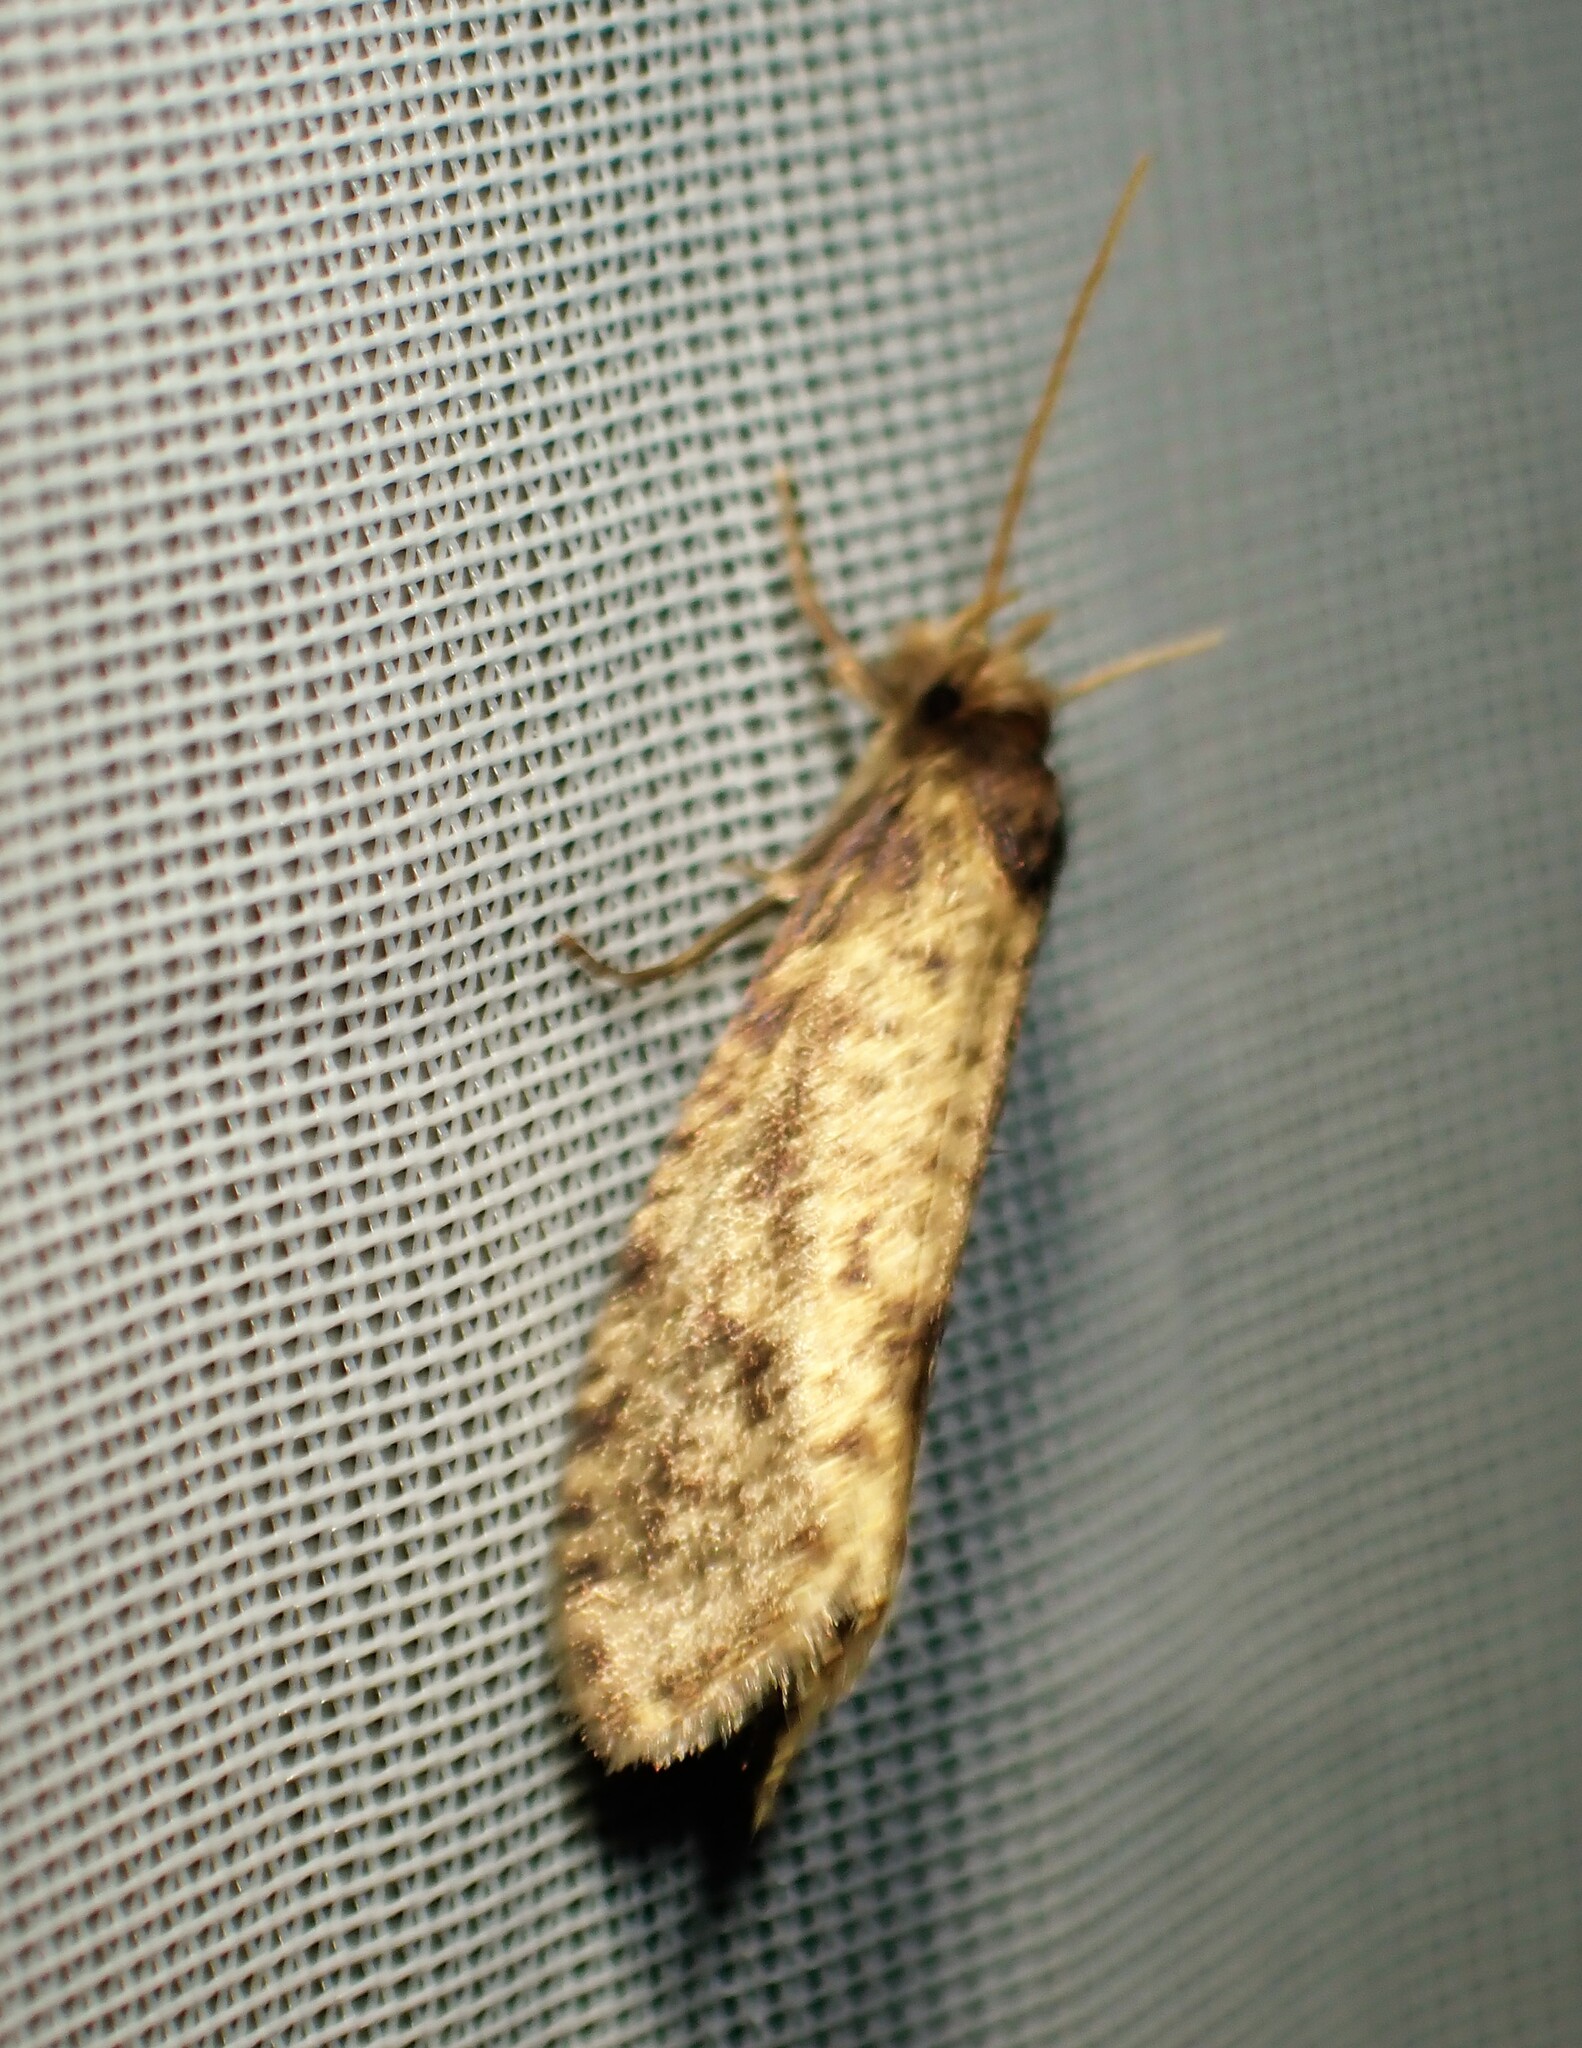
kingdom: Animalia
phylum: Arthropoda
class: Insecta
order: Lepidoptera
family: Tineidae
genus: Amydria
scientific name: Amydria effrentella
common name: Brown-blotched amydria moth
